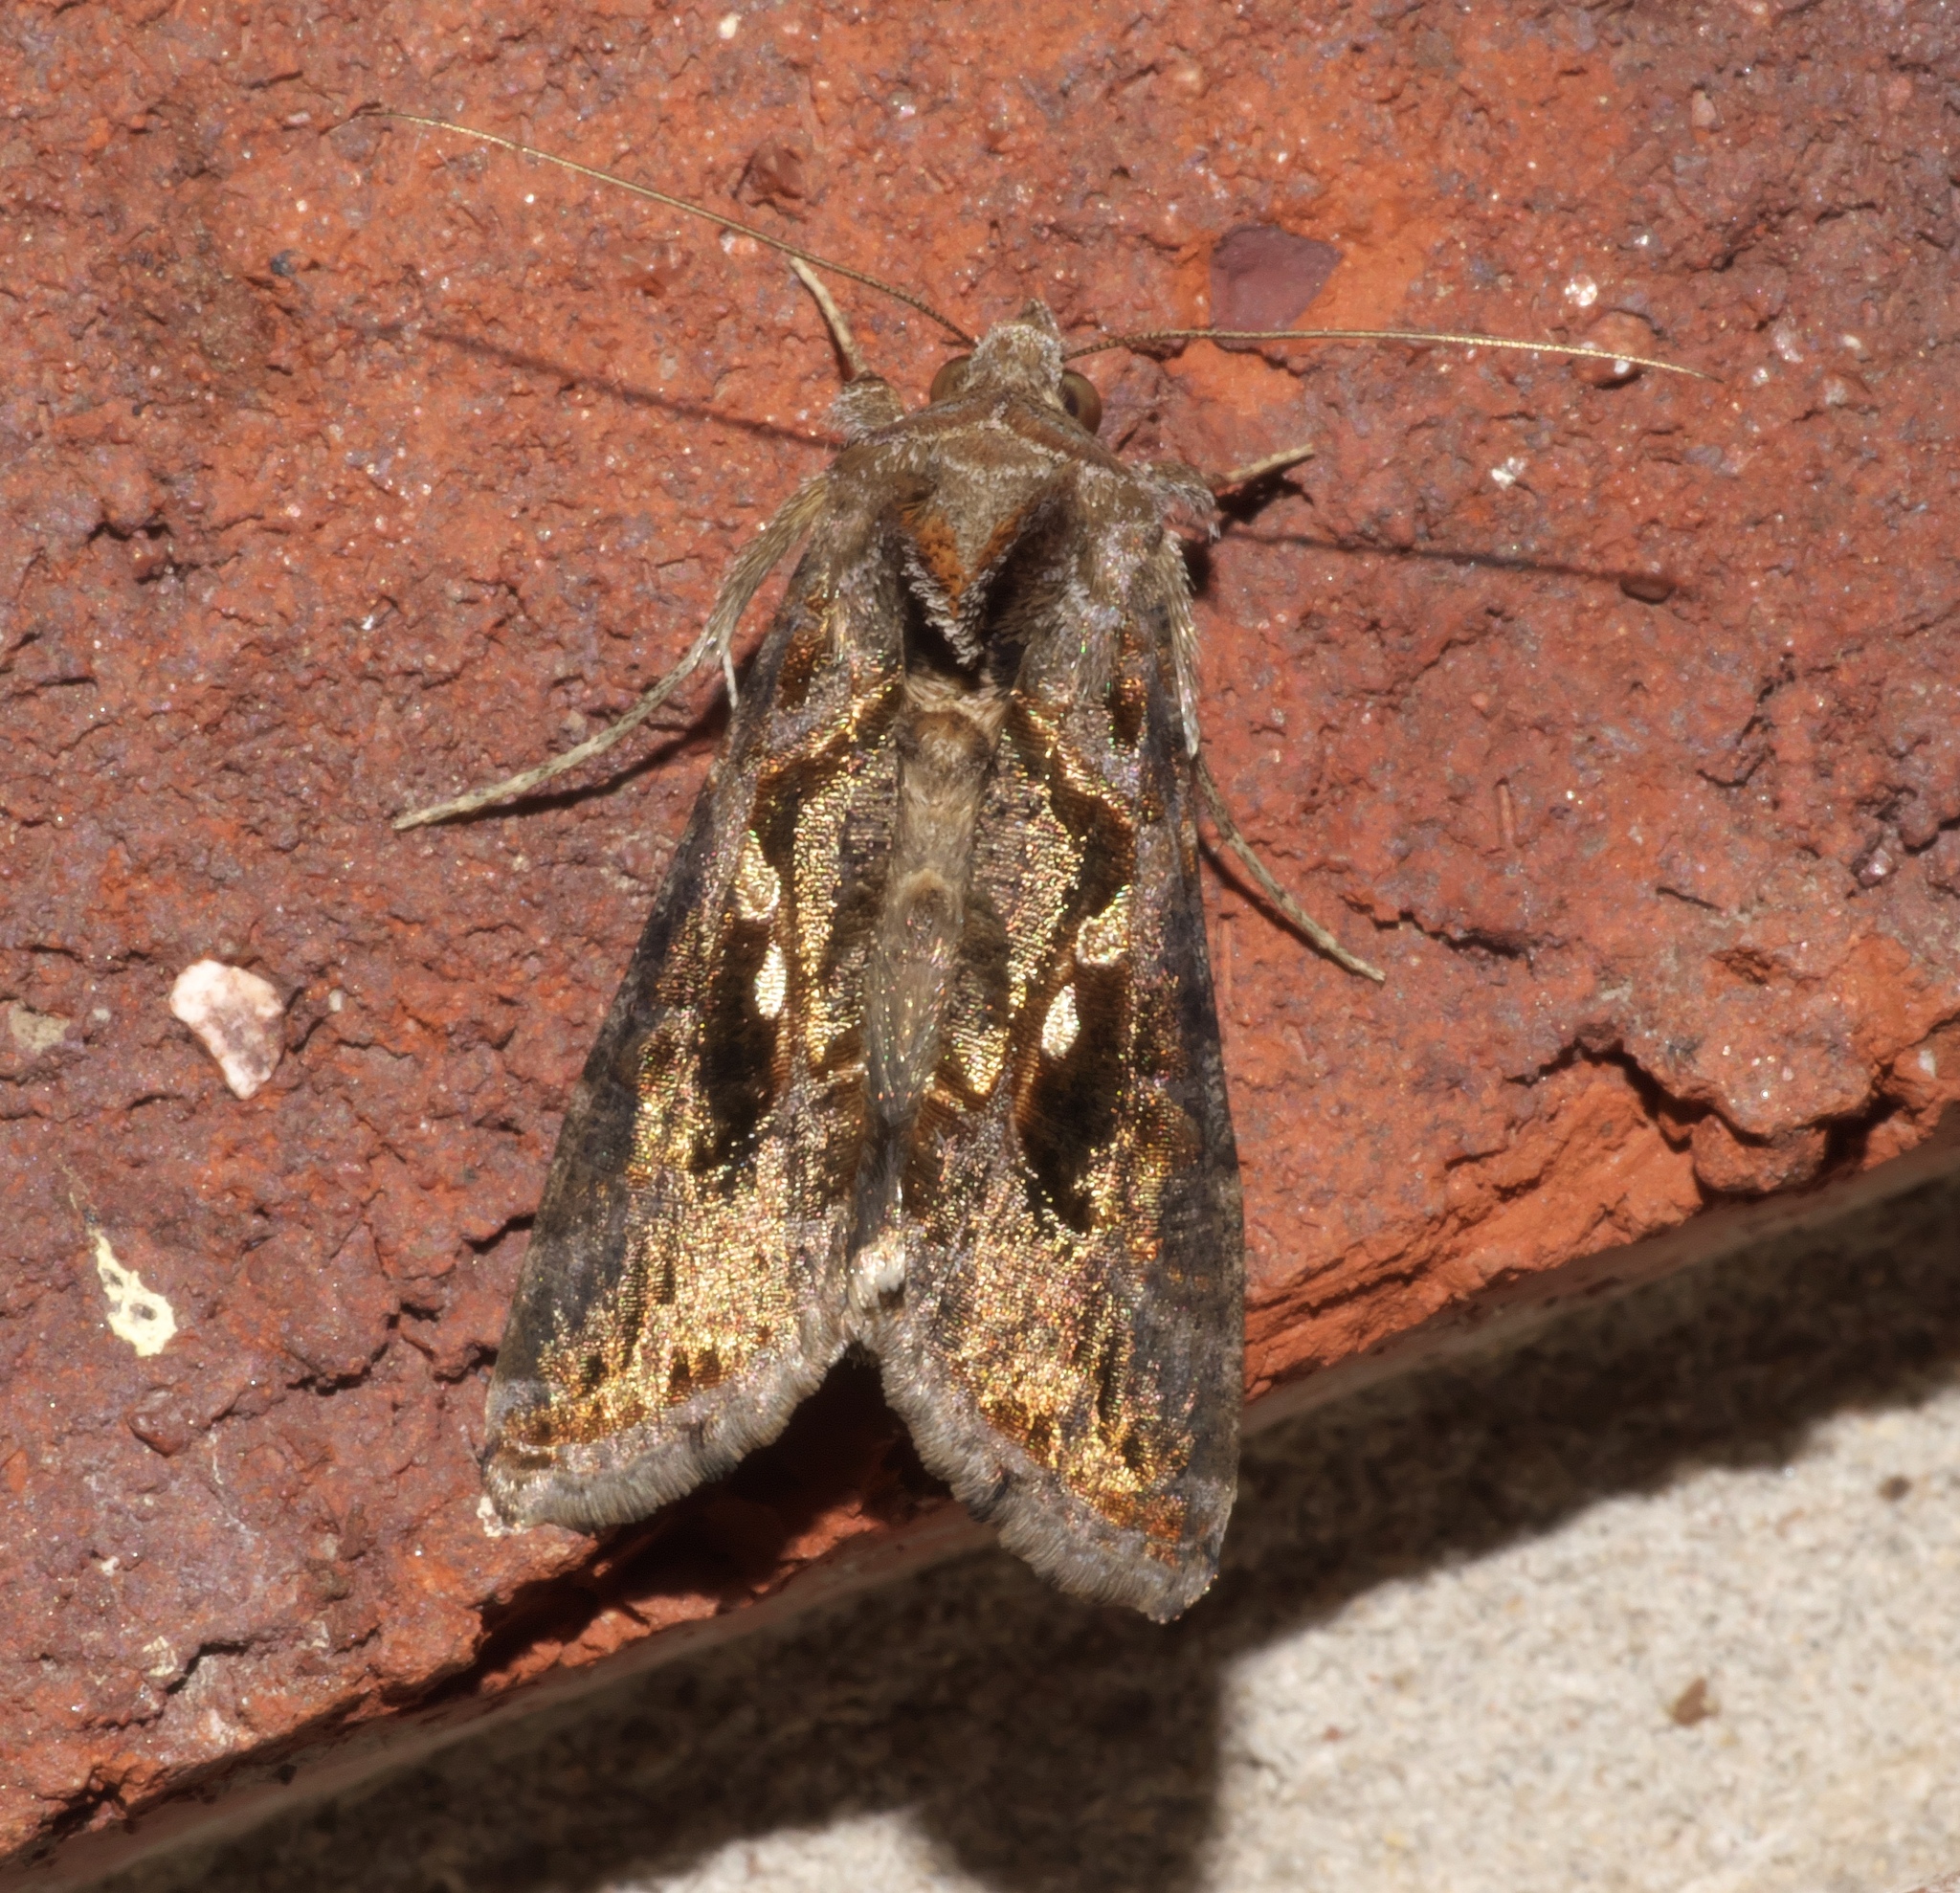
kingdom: Animalia
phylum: Arthropoda
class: Insecta
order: Lepidoptera
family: Noctuidae
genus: Chrysodeixis
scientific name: Chrysodeixis includens
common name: Cutworm moth
